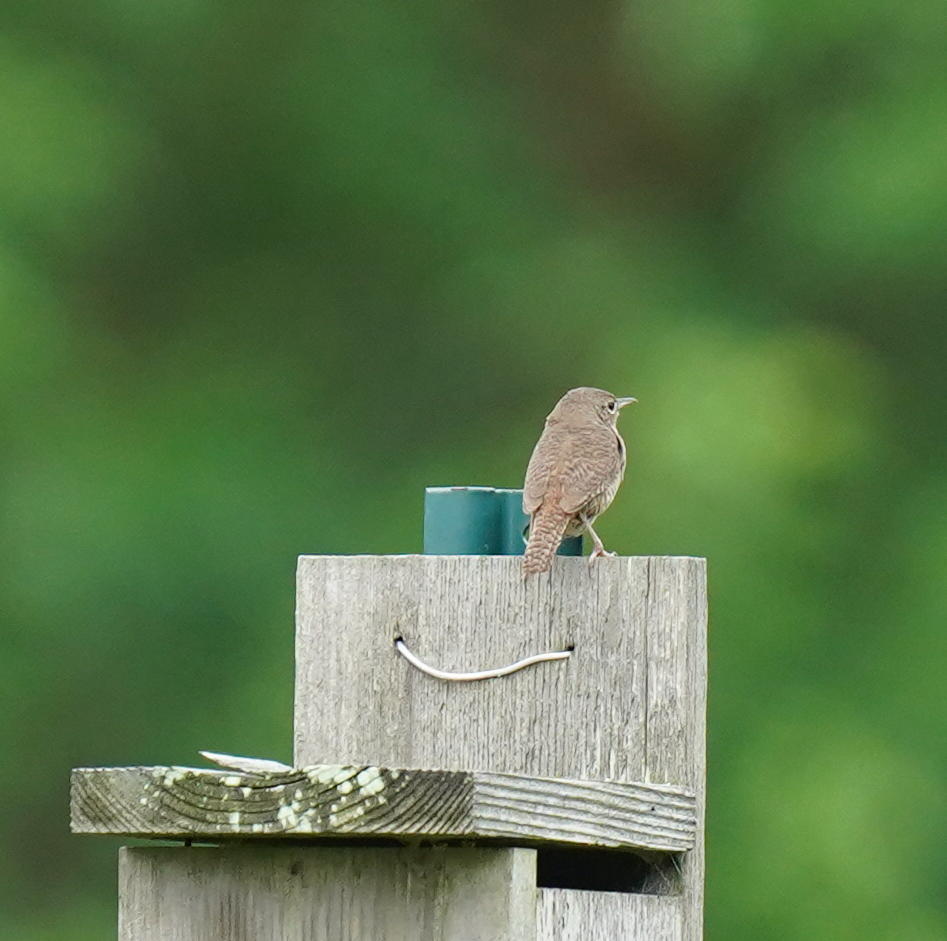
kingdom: Animalia
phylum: Chordata
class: Aves
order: Passeriformes
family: Troglodytidae
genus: Troglodytes
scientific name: Troglodytes aedon
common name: House wren
